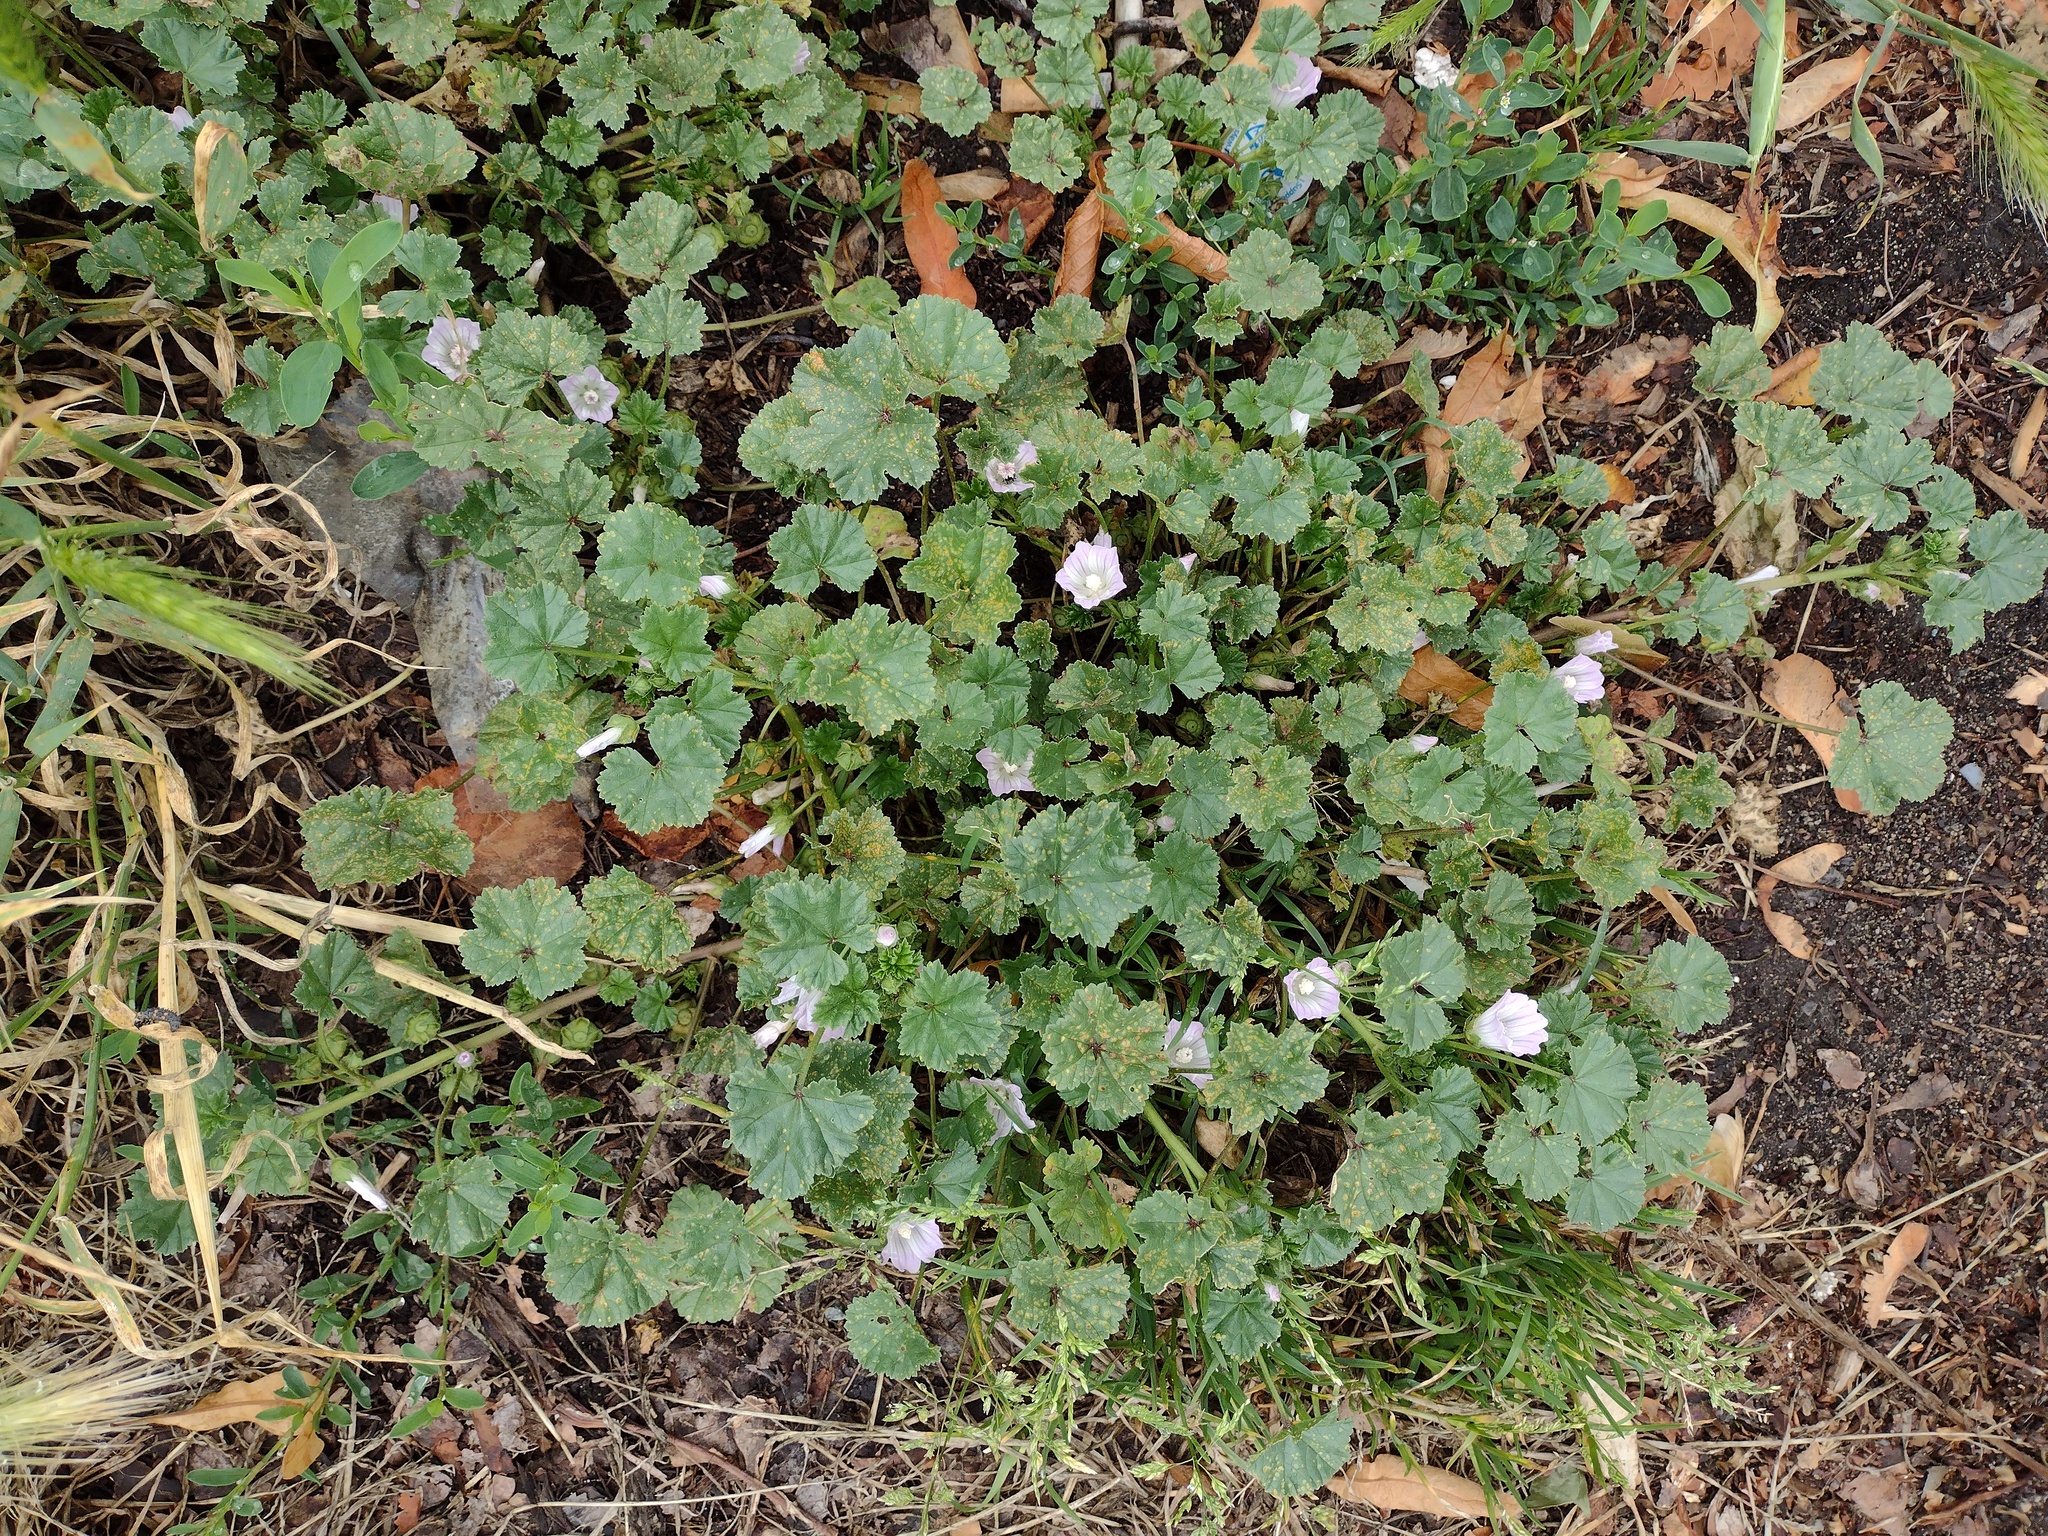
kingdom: Plantae
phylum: Tracheophyta
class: Magnoliopsida
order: Malvales
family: Malvaceae
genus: Malva
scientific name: Malva neglecta
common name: Common mallow
